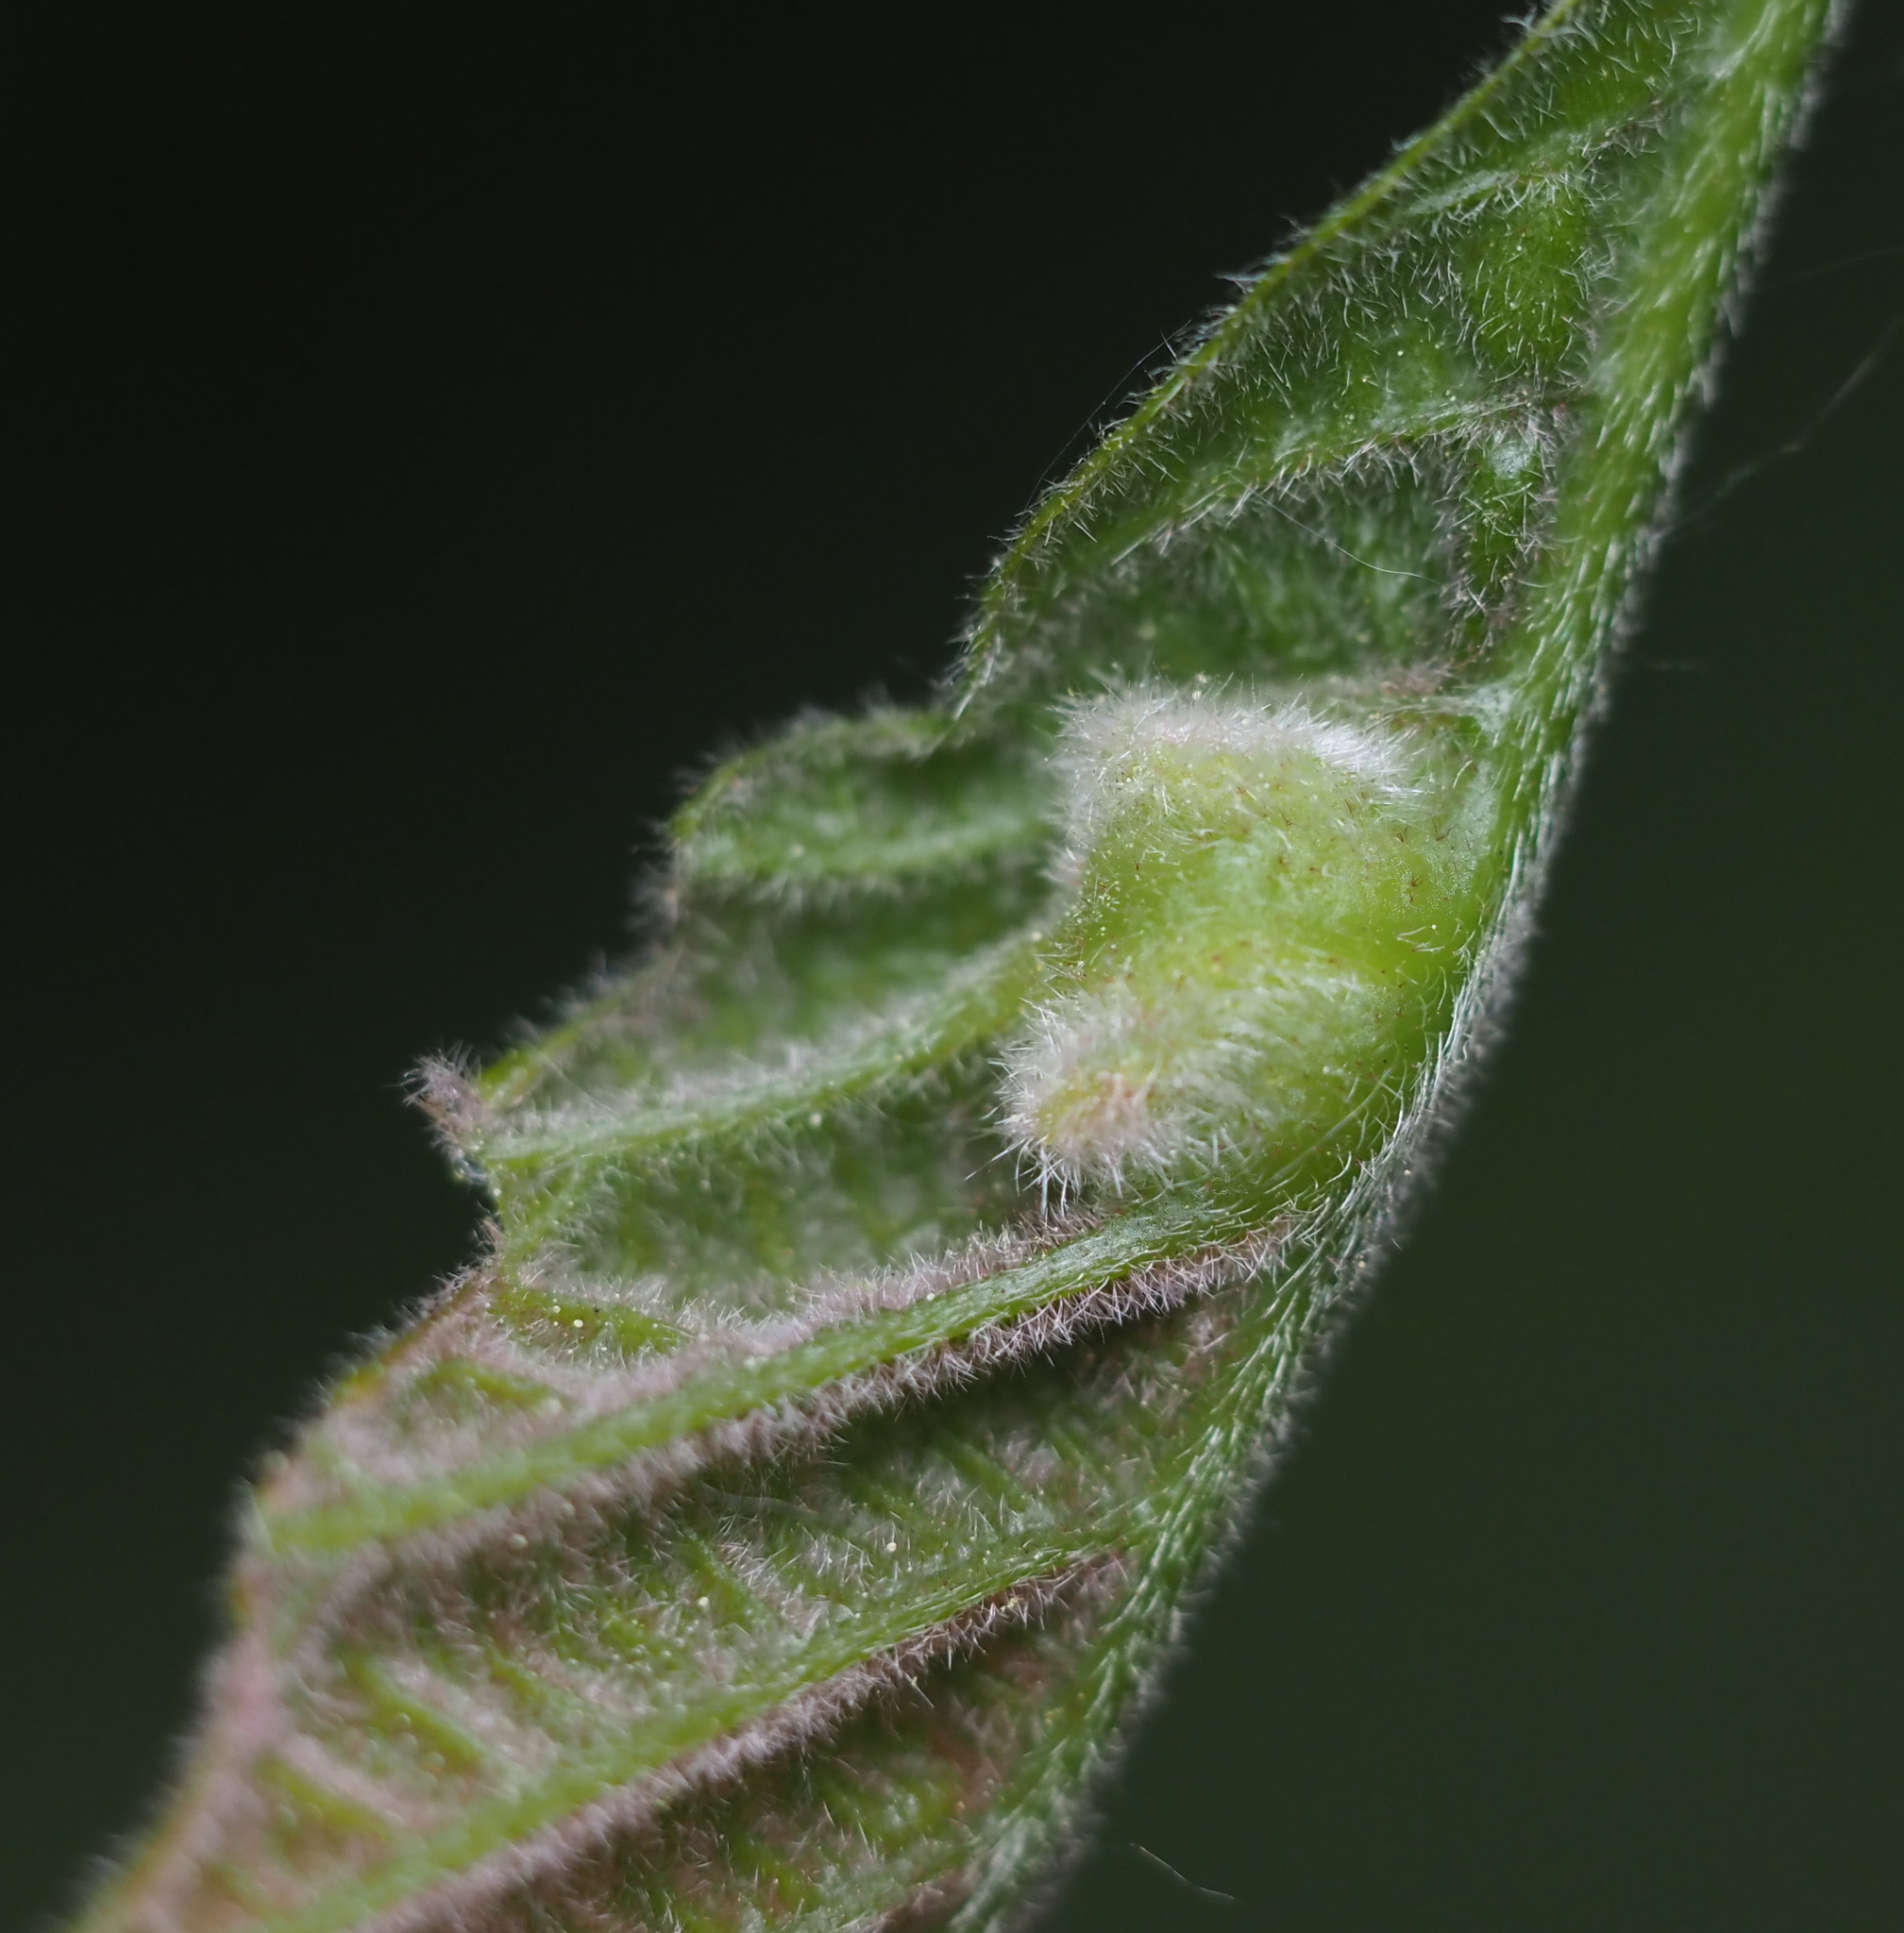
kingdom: Animalia
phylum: Arthropoda
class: Insecta
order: Diptera
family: Cecidomyiidae
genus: Macrodiplosis
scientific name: Macrodiplosis niveipila
